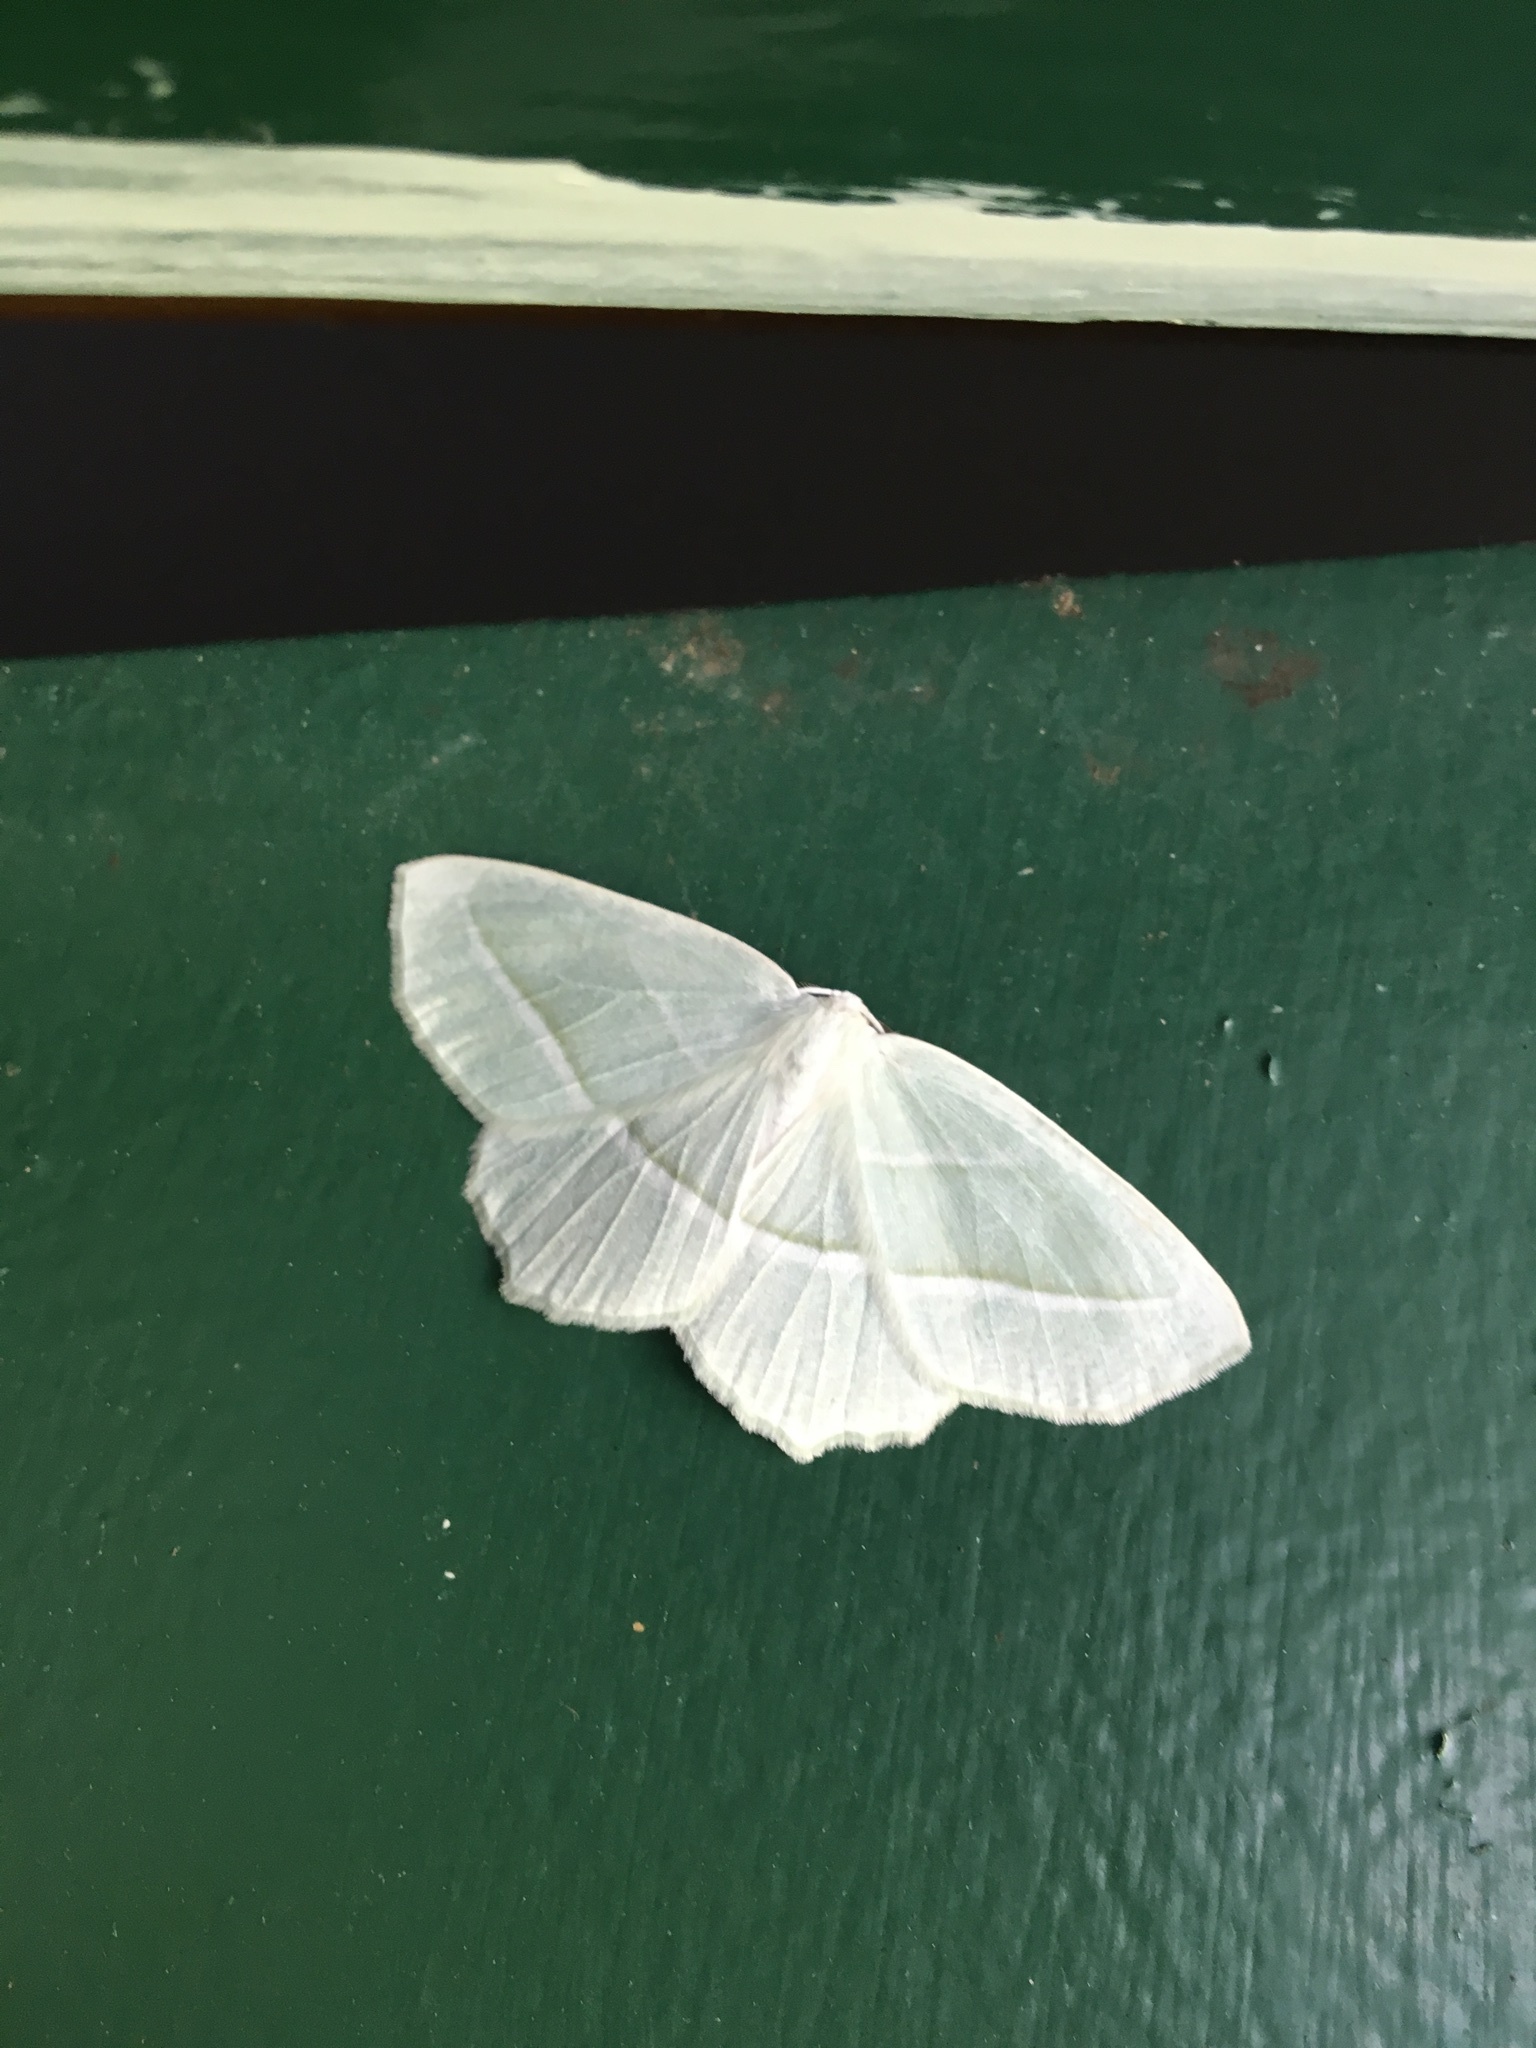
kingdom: Animalia
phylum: Arthropoda
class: Insecta
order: Lepidoptera
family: Geometridae
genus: Campaea
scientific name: Campaea perlata
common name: Fringed looper
